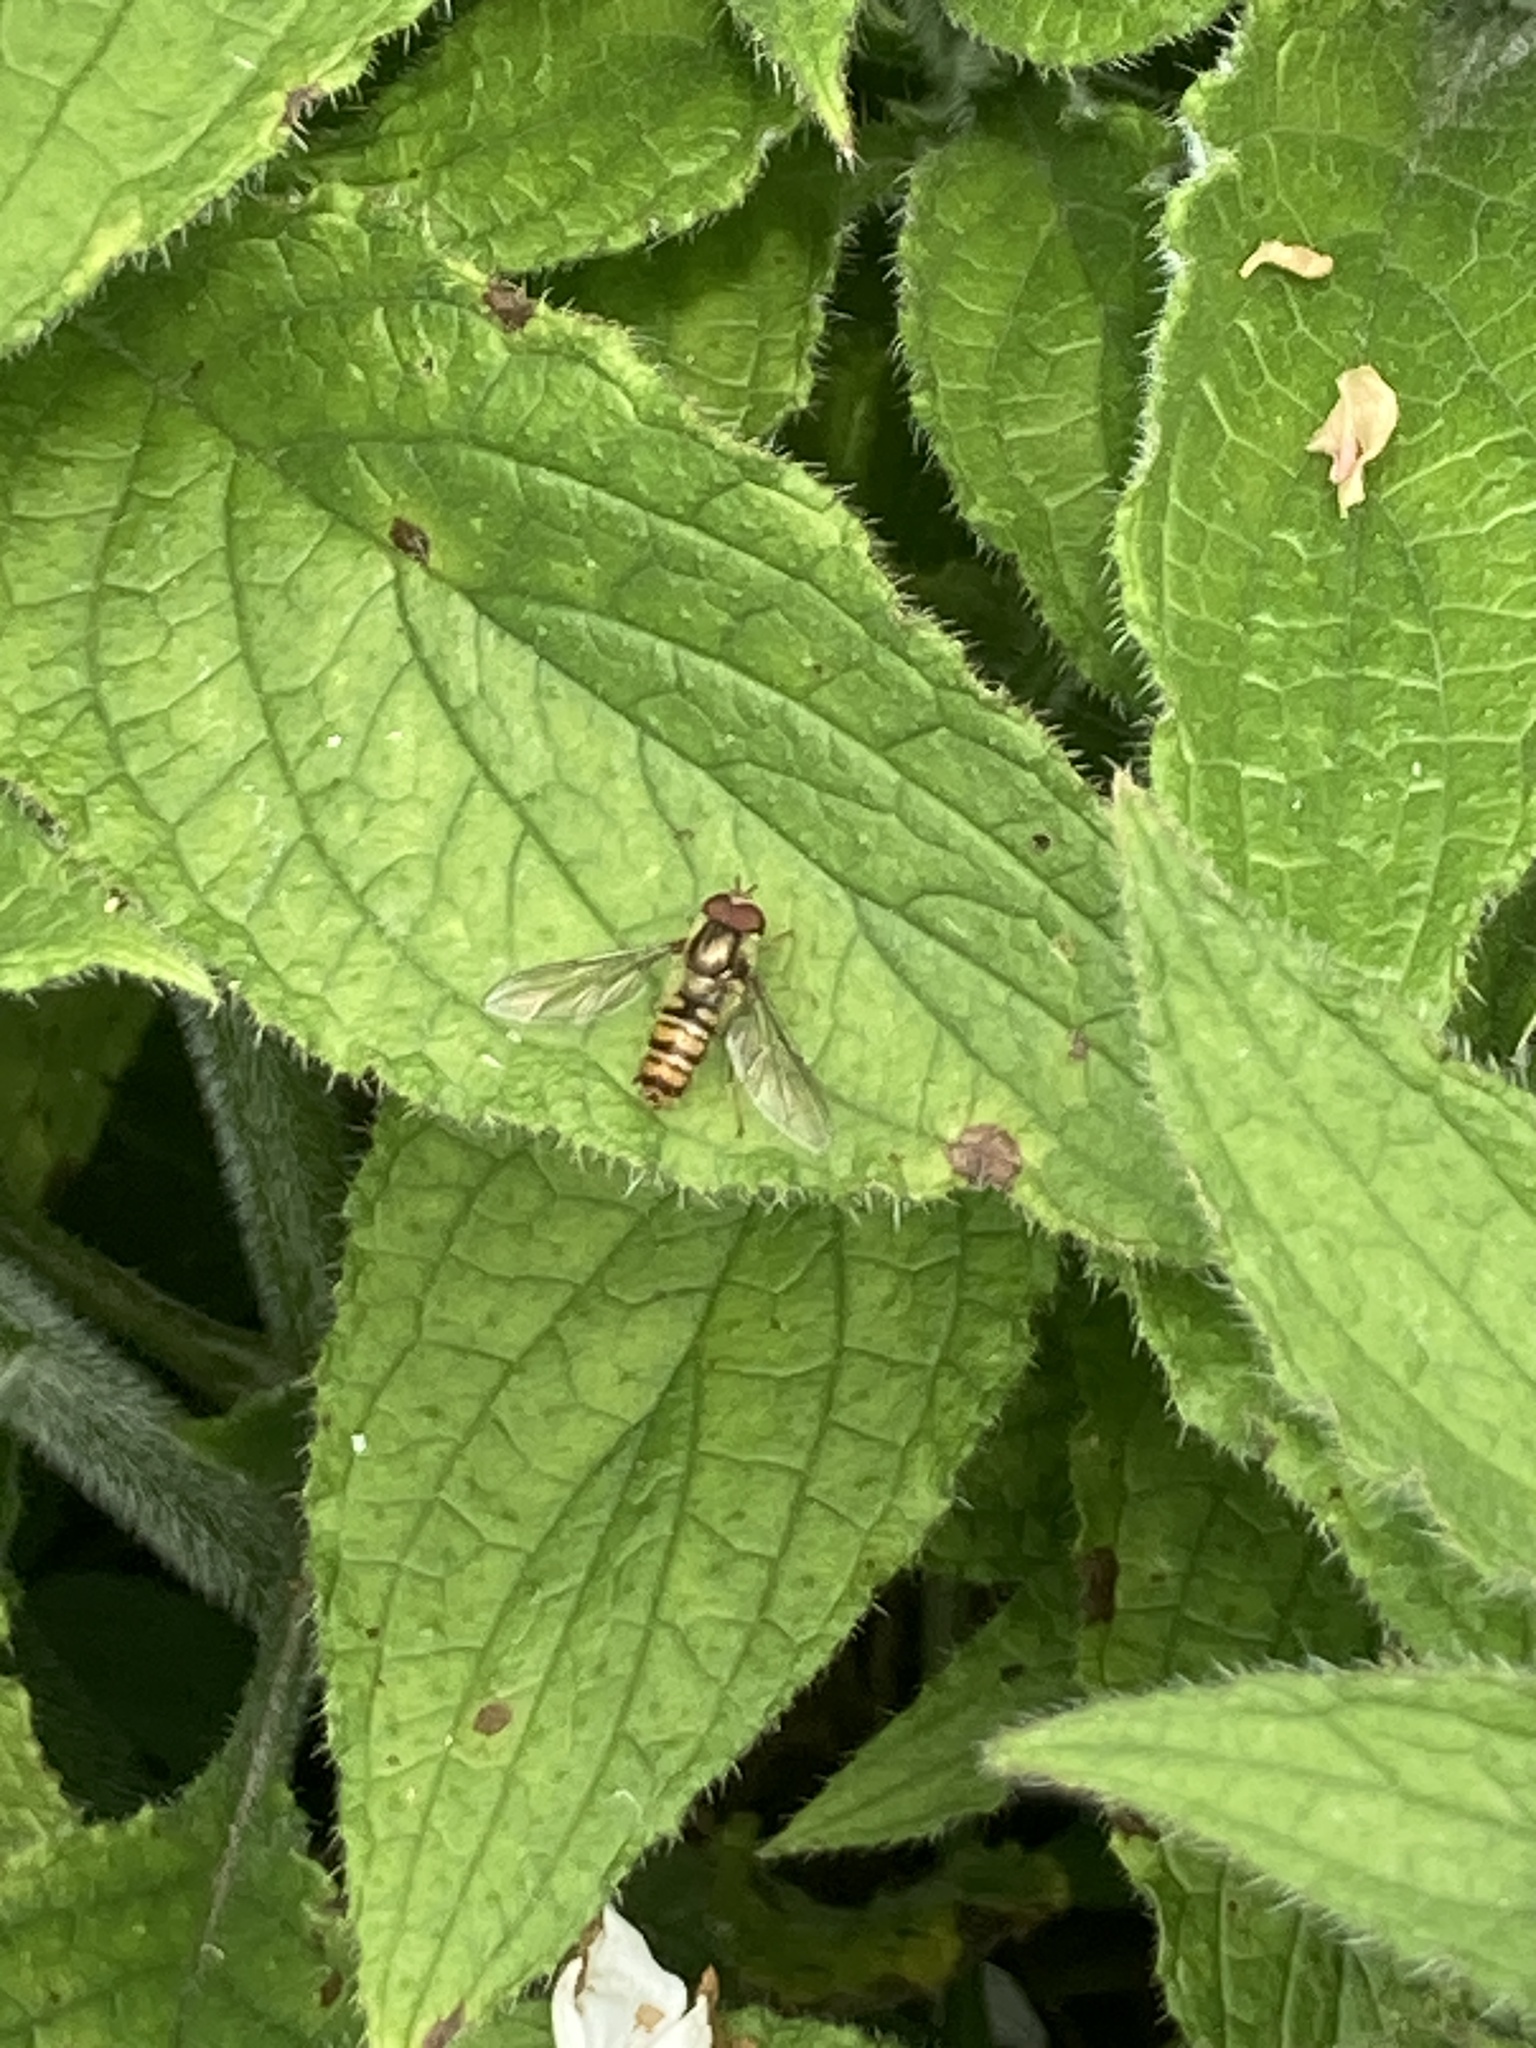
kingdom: Animalia
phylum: Arthropoda
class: Insecta
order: Diptera
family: Syrphidae
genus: Episyrphus
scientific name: Episyrphus balteatus
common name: Marmalade hoverfly
